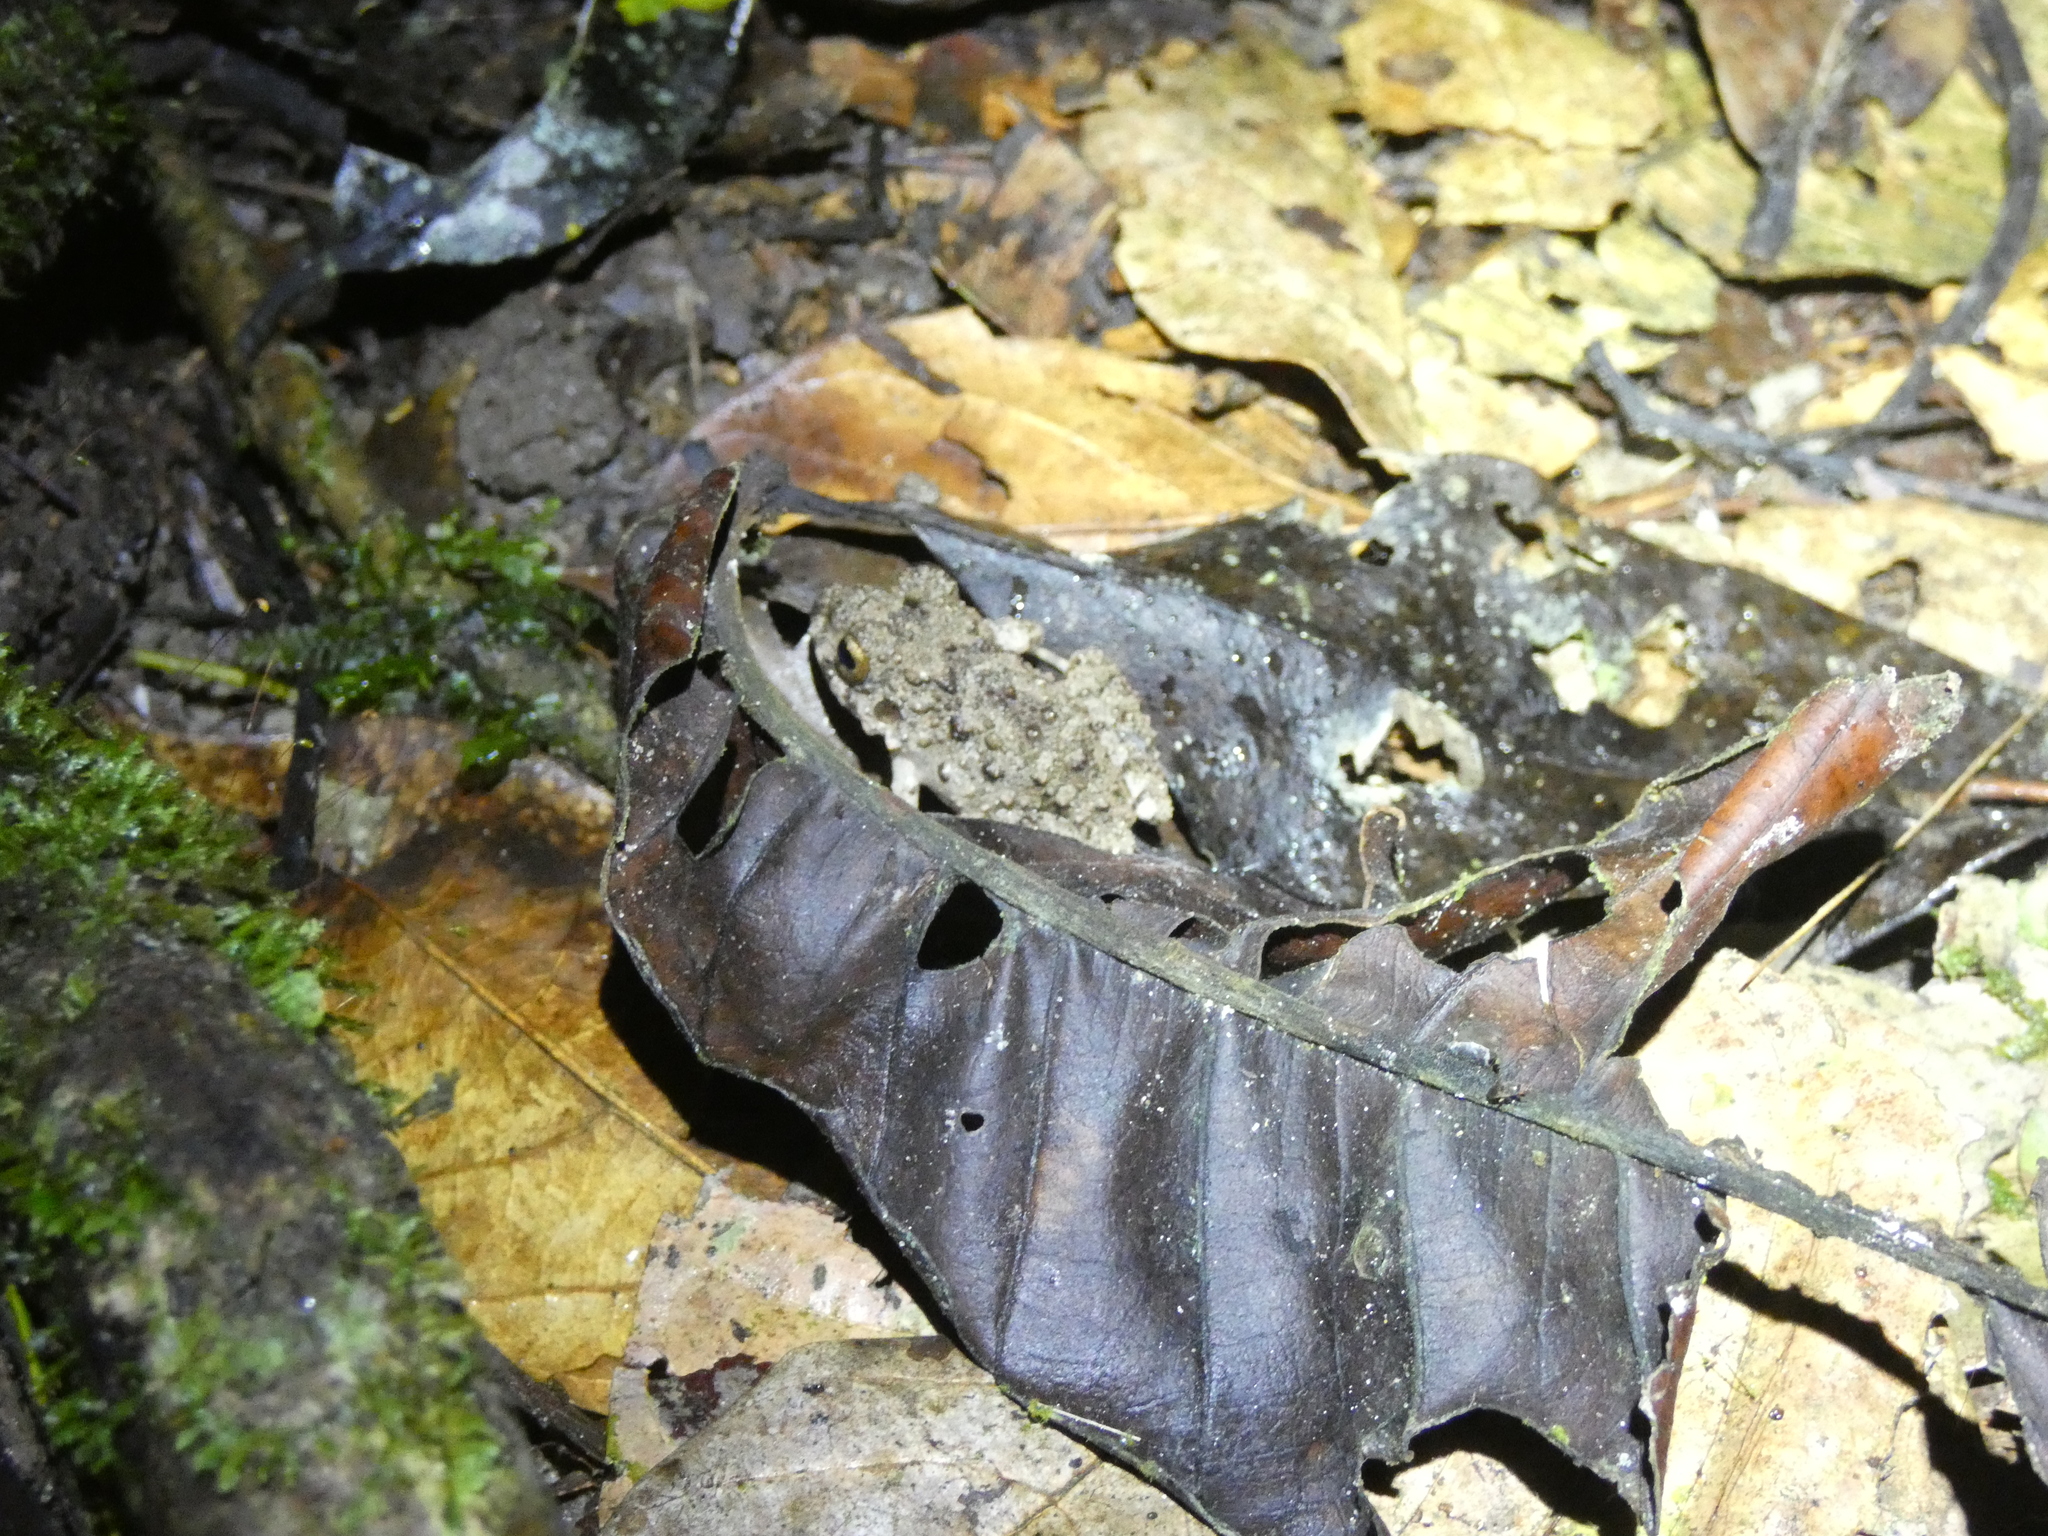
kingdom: Animalia
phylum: Chordata
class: Amphibia
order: Anura
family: Craugastoridae
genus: Oreobates
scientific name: Oreobates quixensis
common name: Common big-headed frog
